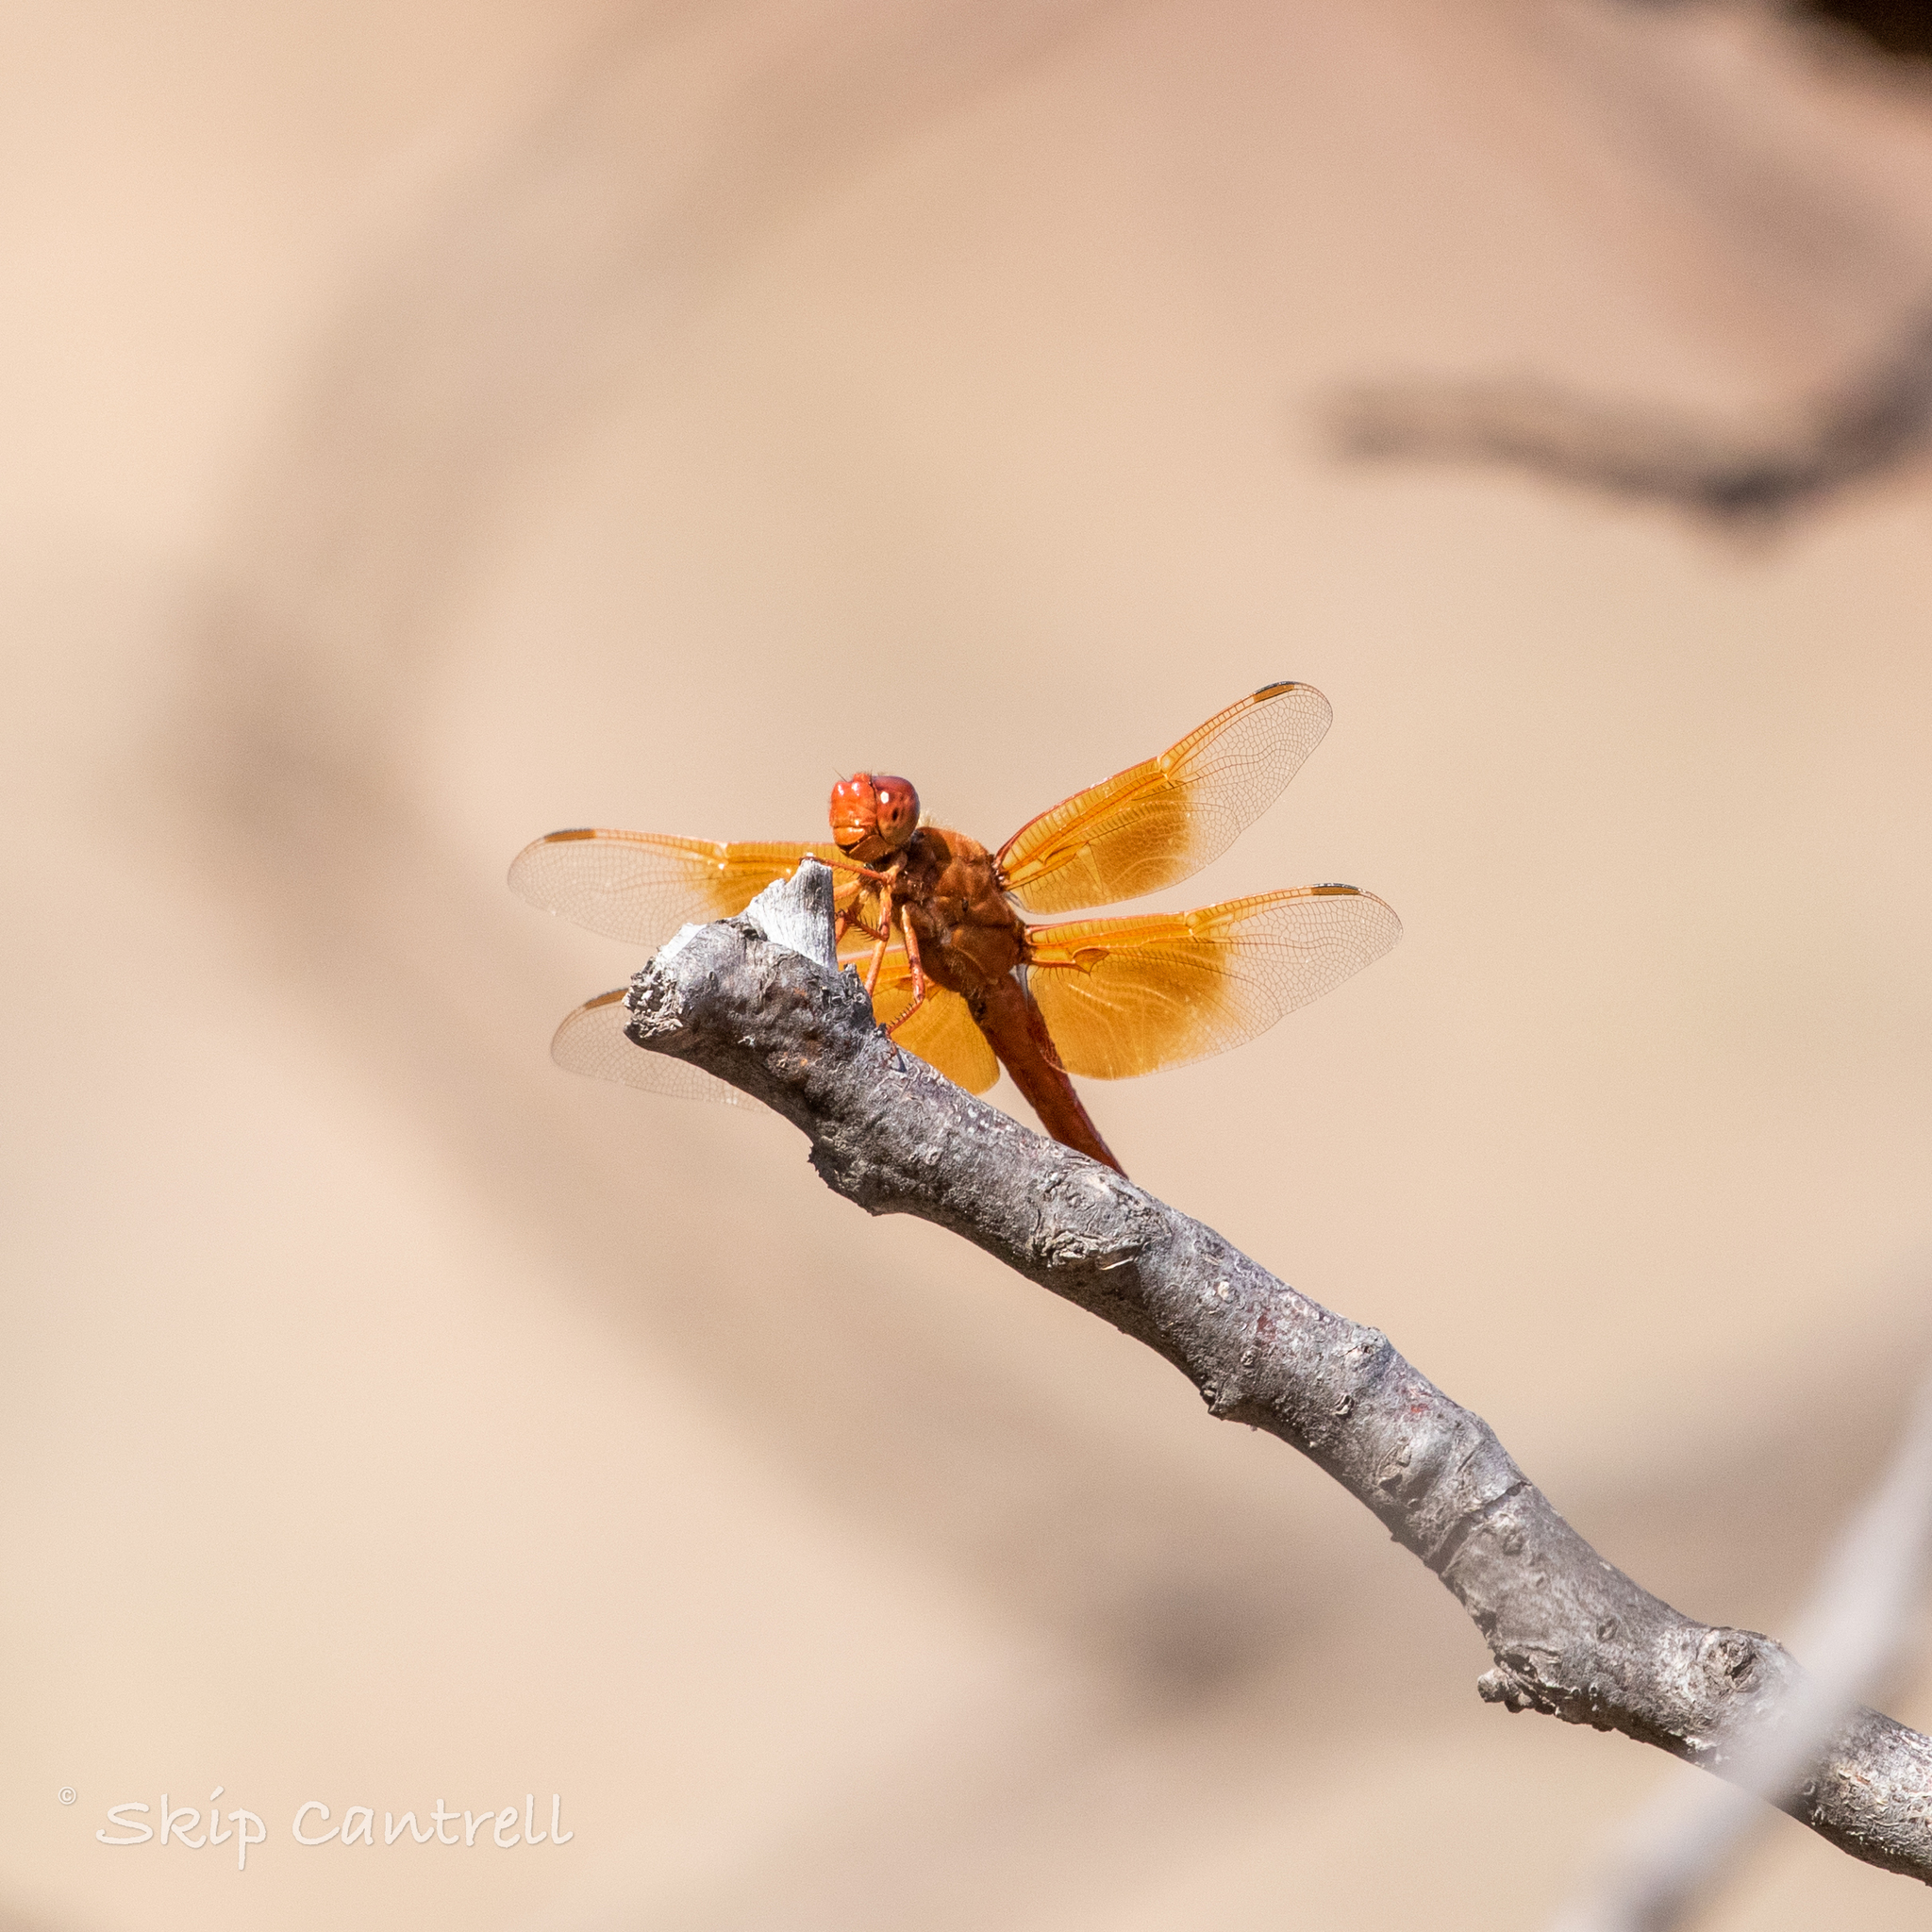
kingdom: Animalia
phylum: Arthropoda
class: Insecta
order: Odonata
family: Libellulidae
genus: Libellula
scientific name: Libellula saturata
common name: Flame skimmer
